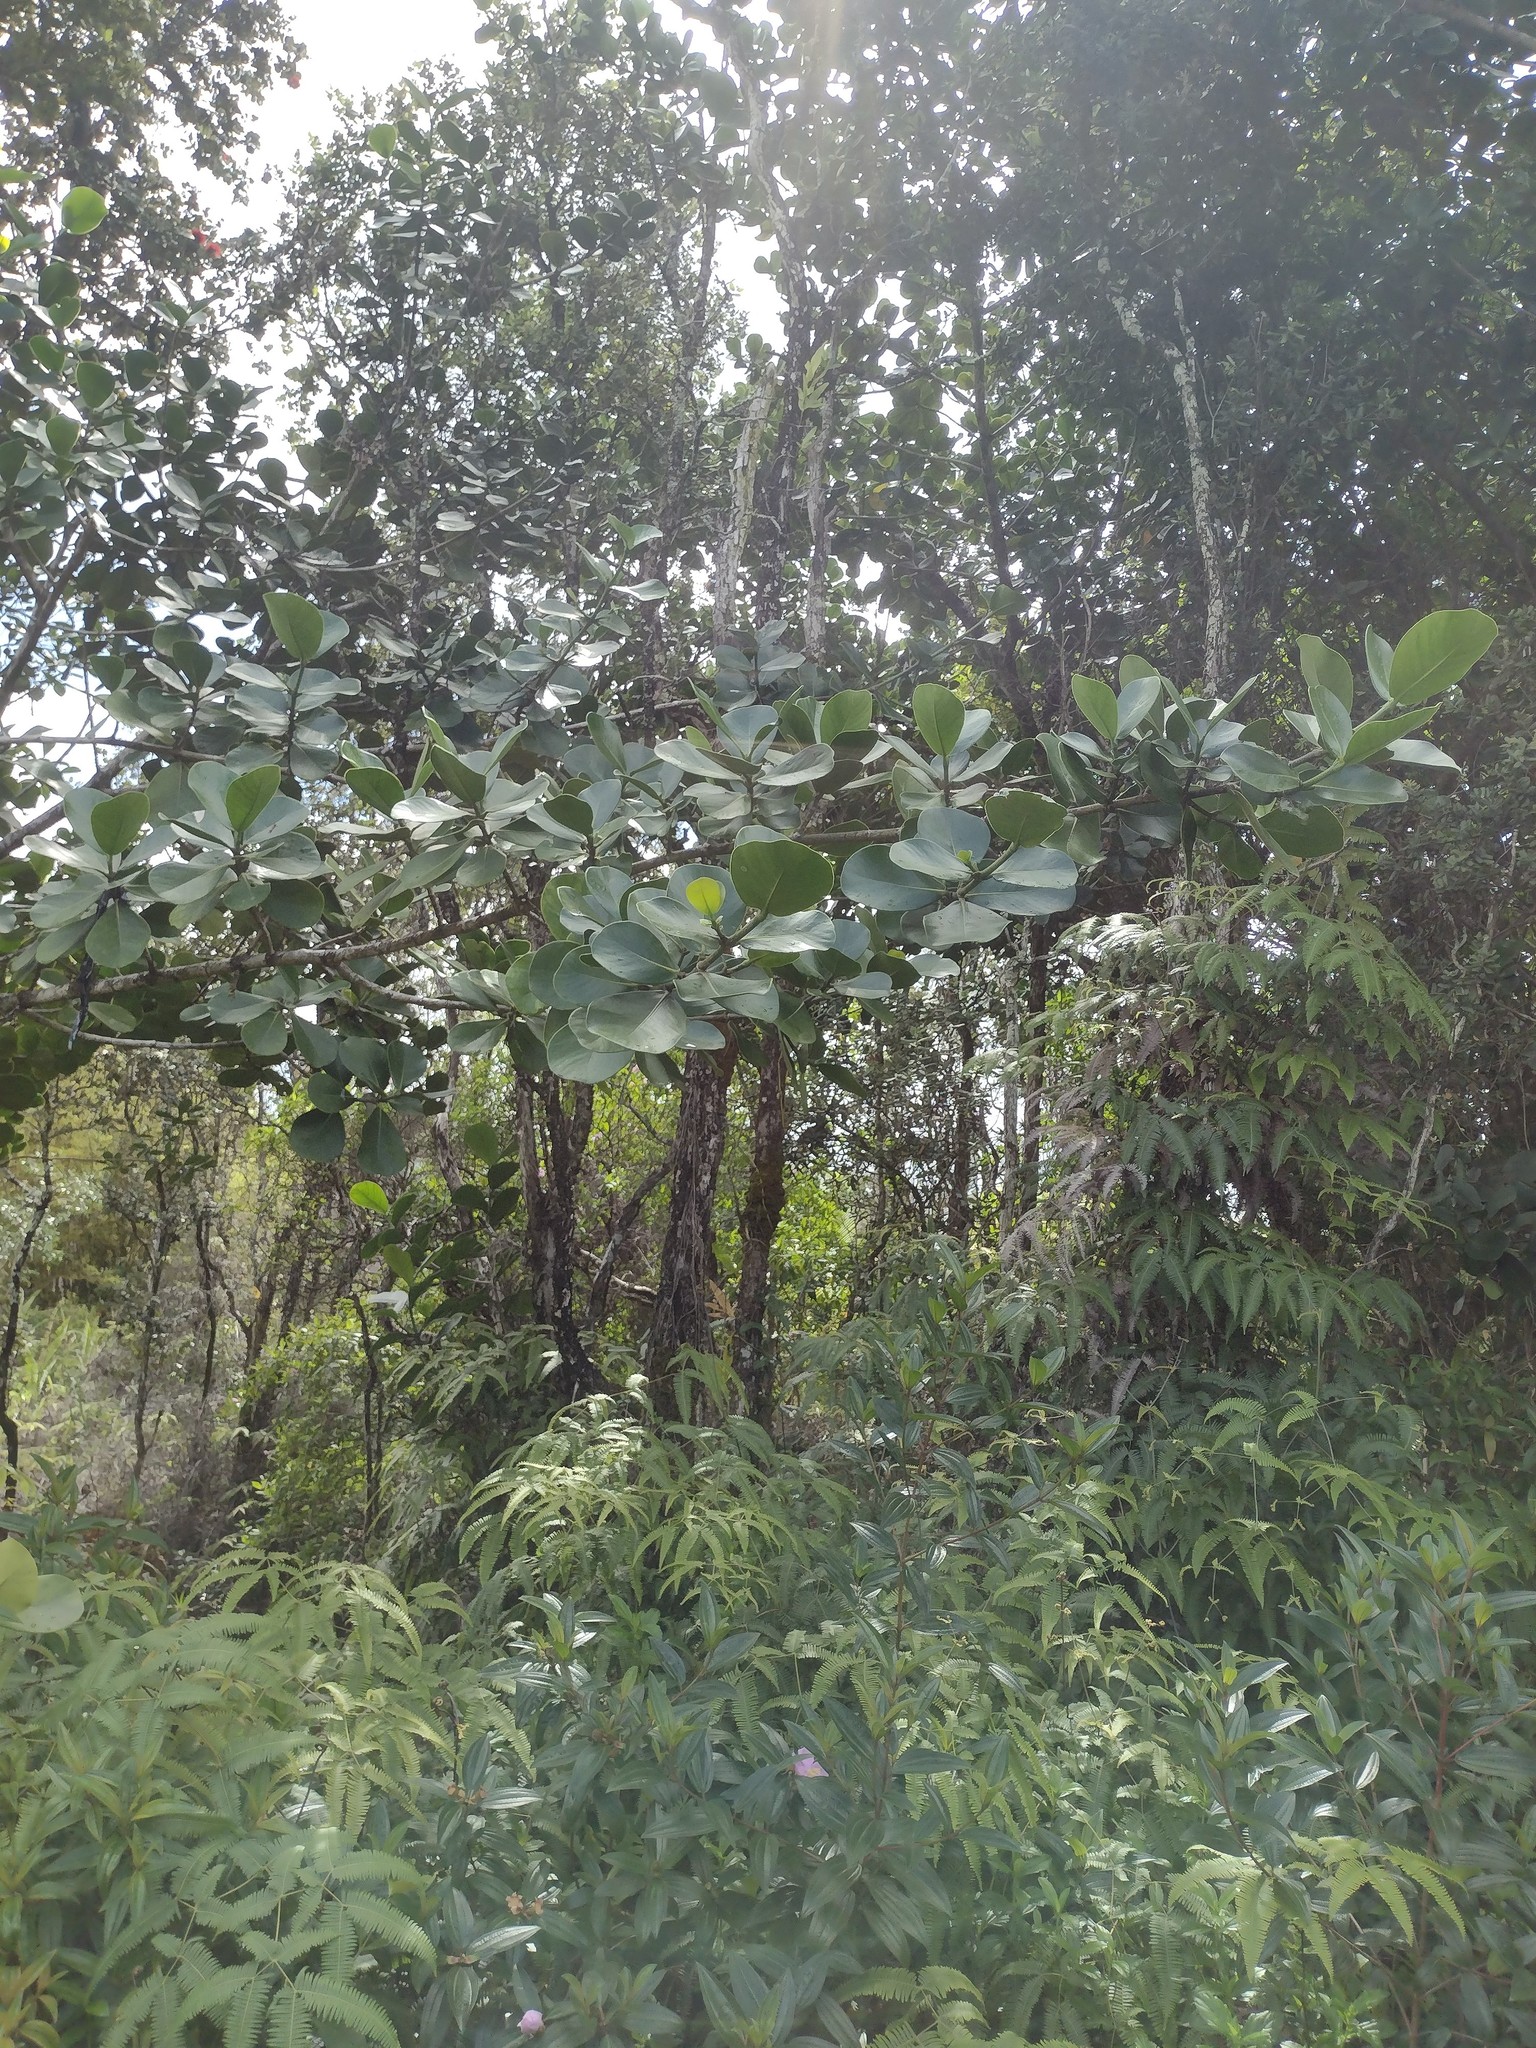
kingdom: Plantae
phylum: Tracheophyta
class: Magnoliopsida
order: Malpighiales
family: Clusiaceae
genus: Clusia
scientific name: Clusia rosea
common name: Scotch attorney
